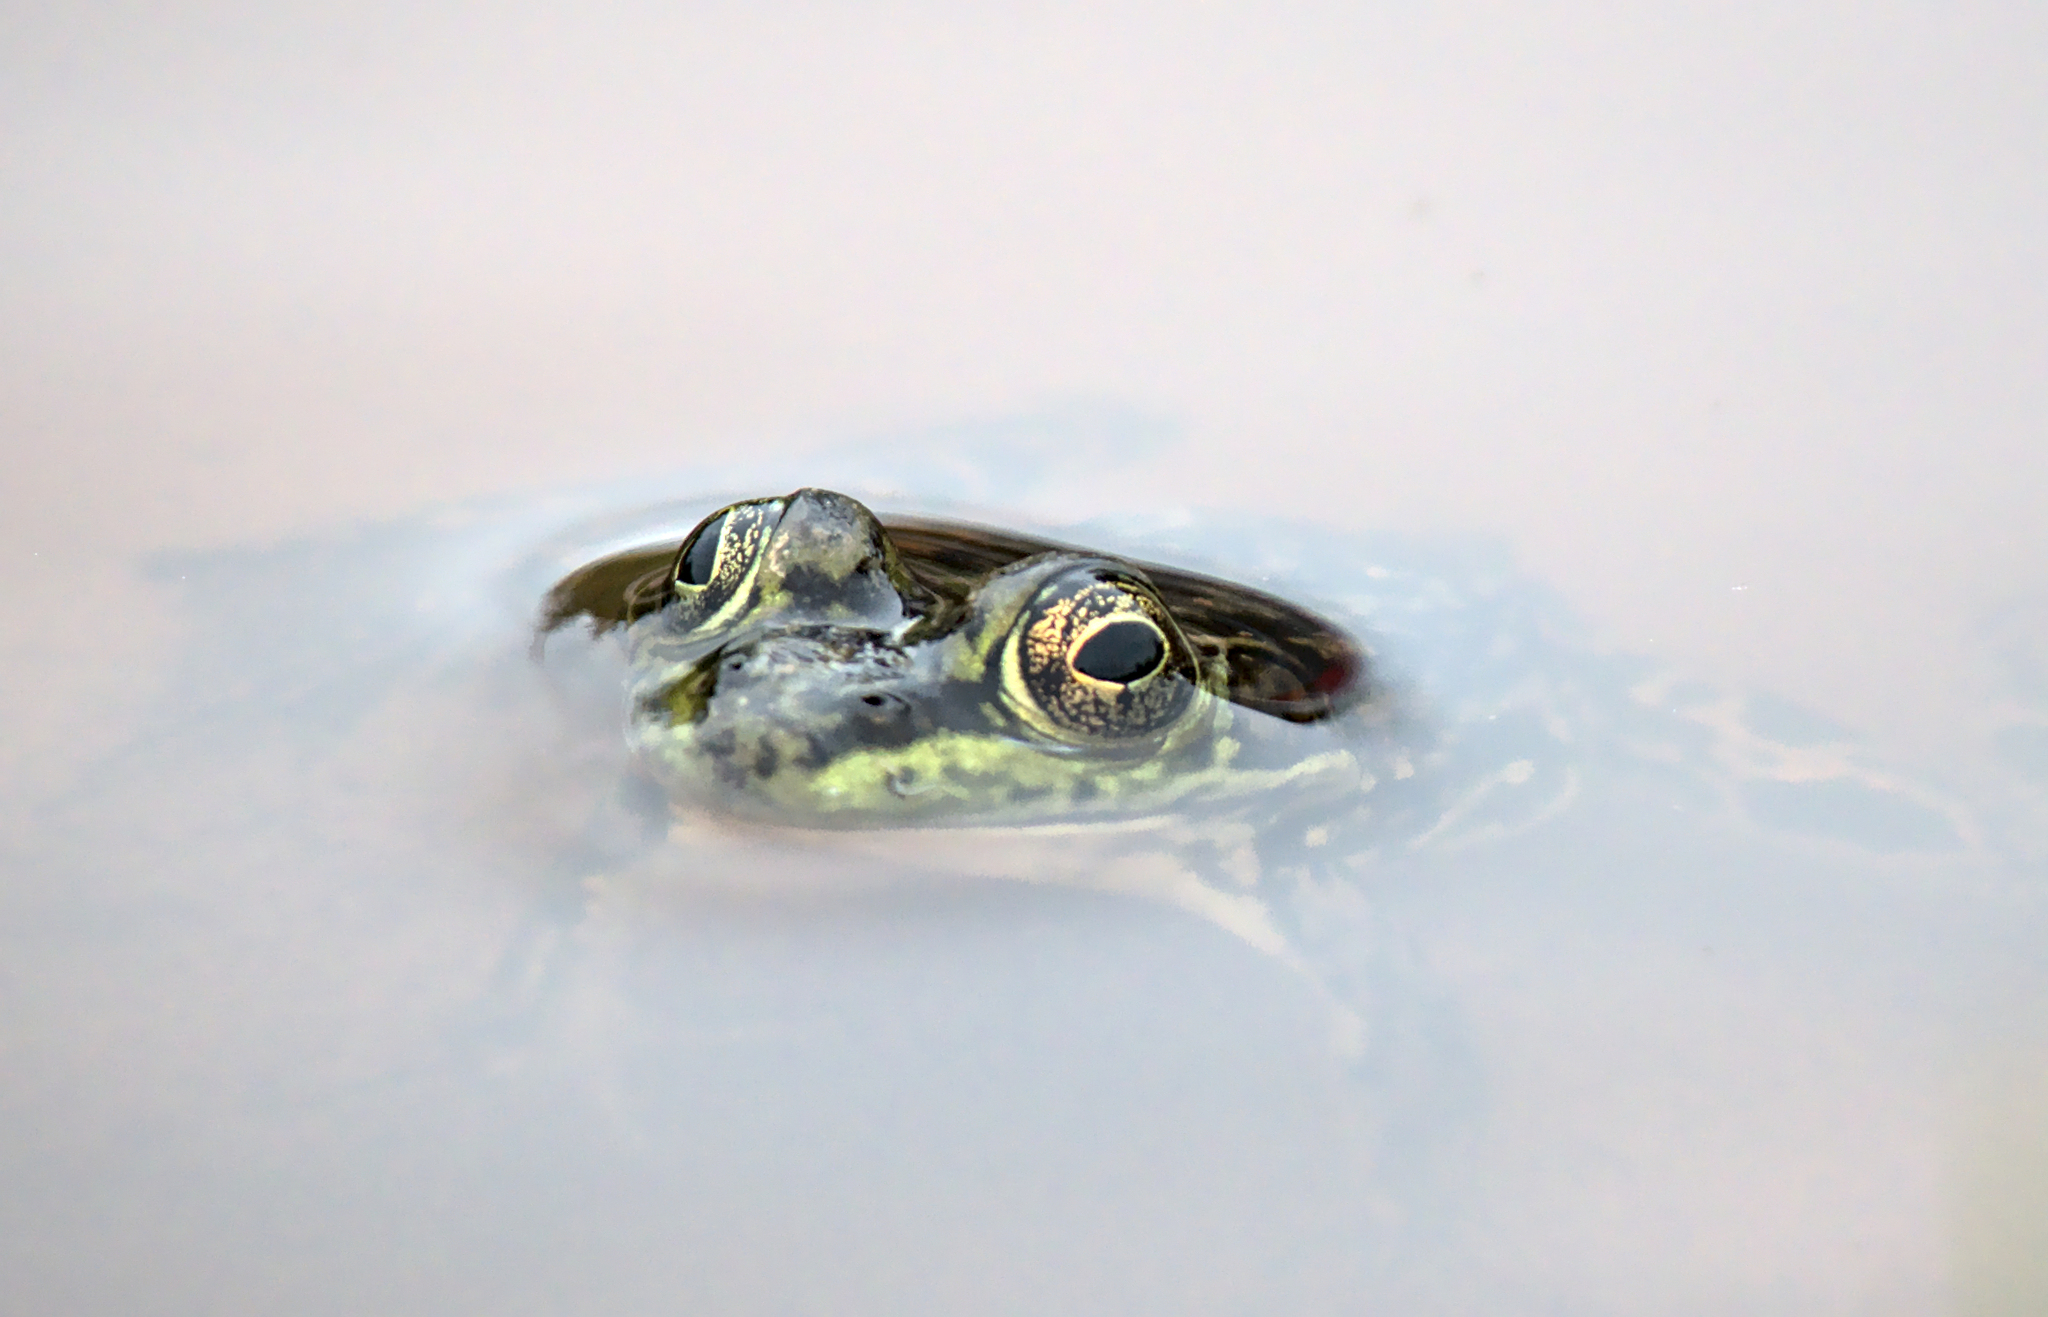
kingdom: Animalia
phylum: Chordata
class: Amphibia
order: Anura
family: Ranidae
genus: Lithobates
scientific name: Lithobates septentrionalis
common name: Mink frog
